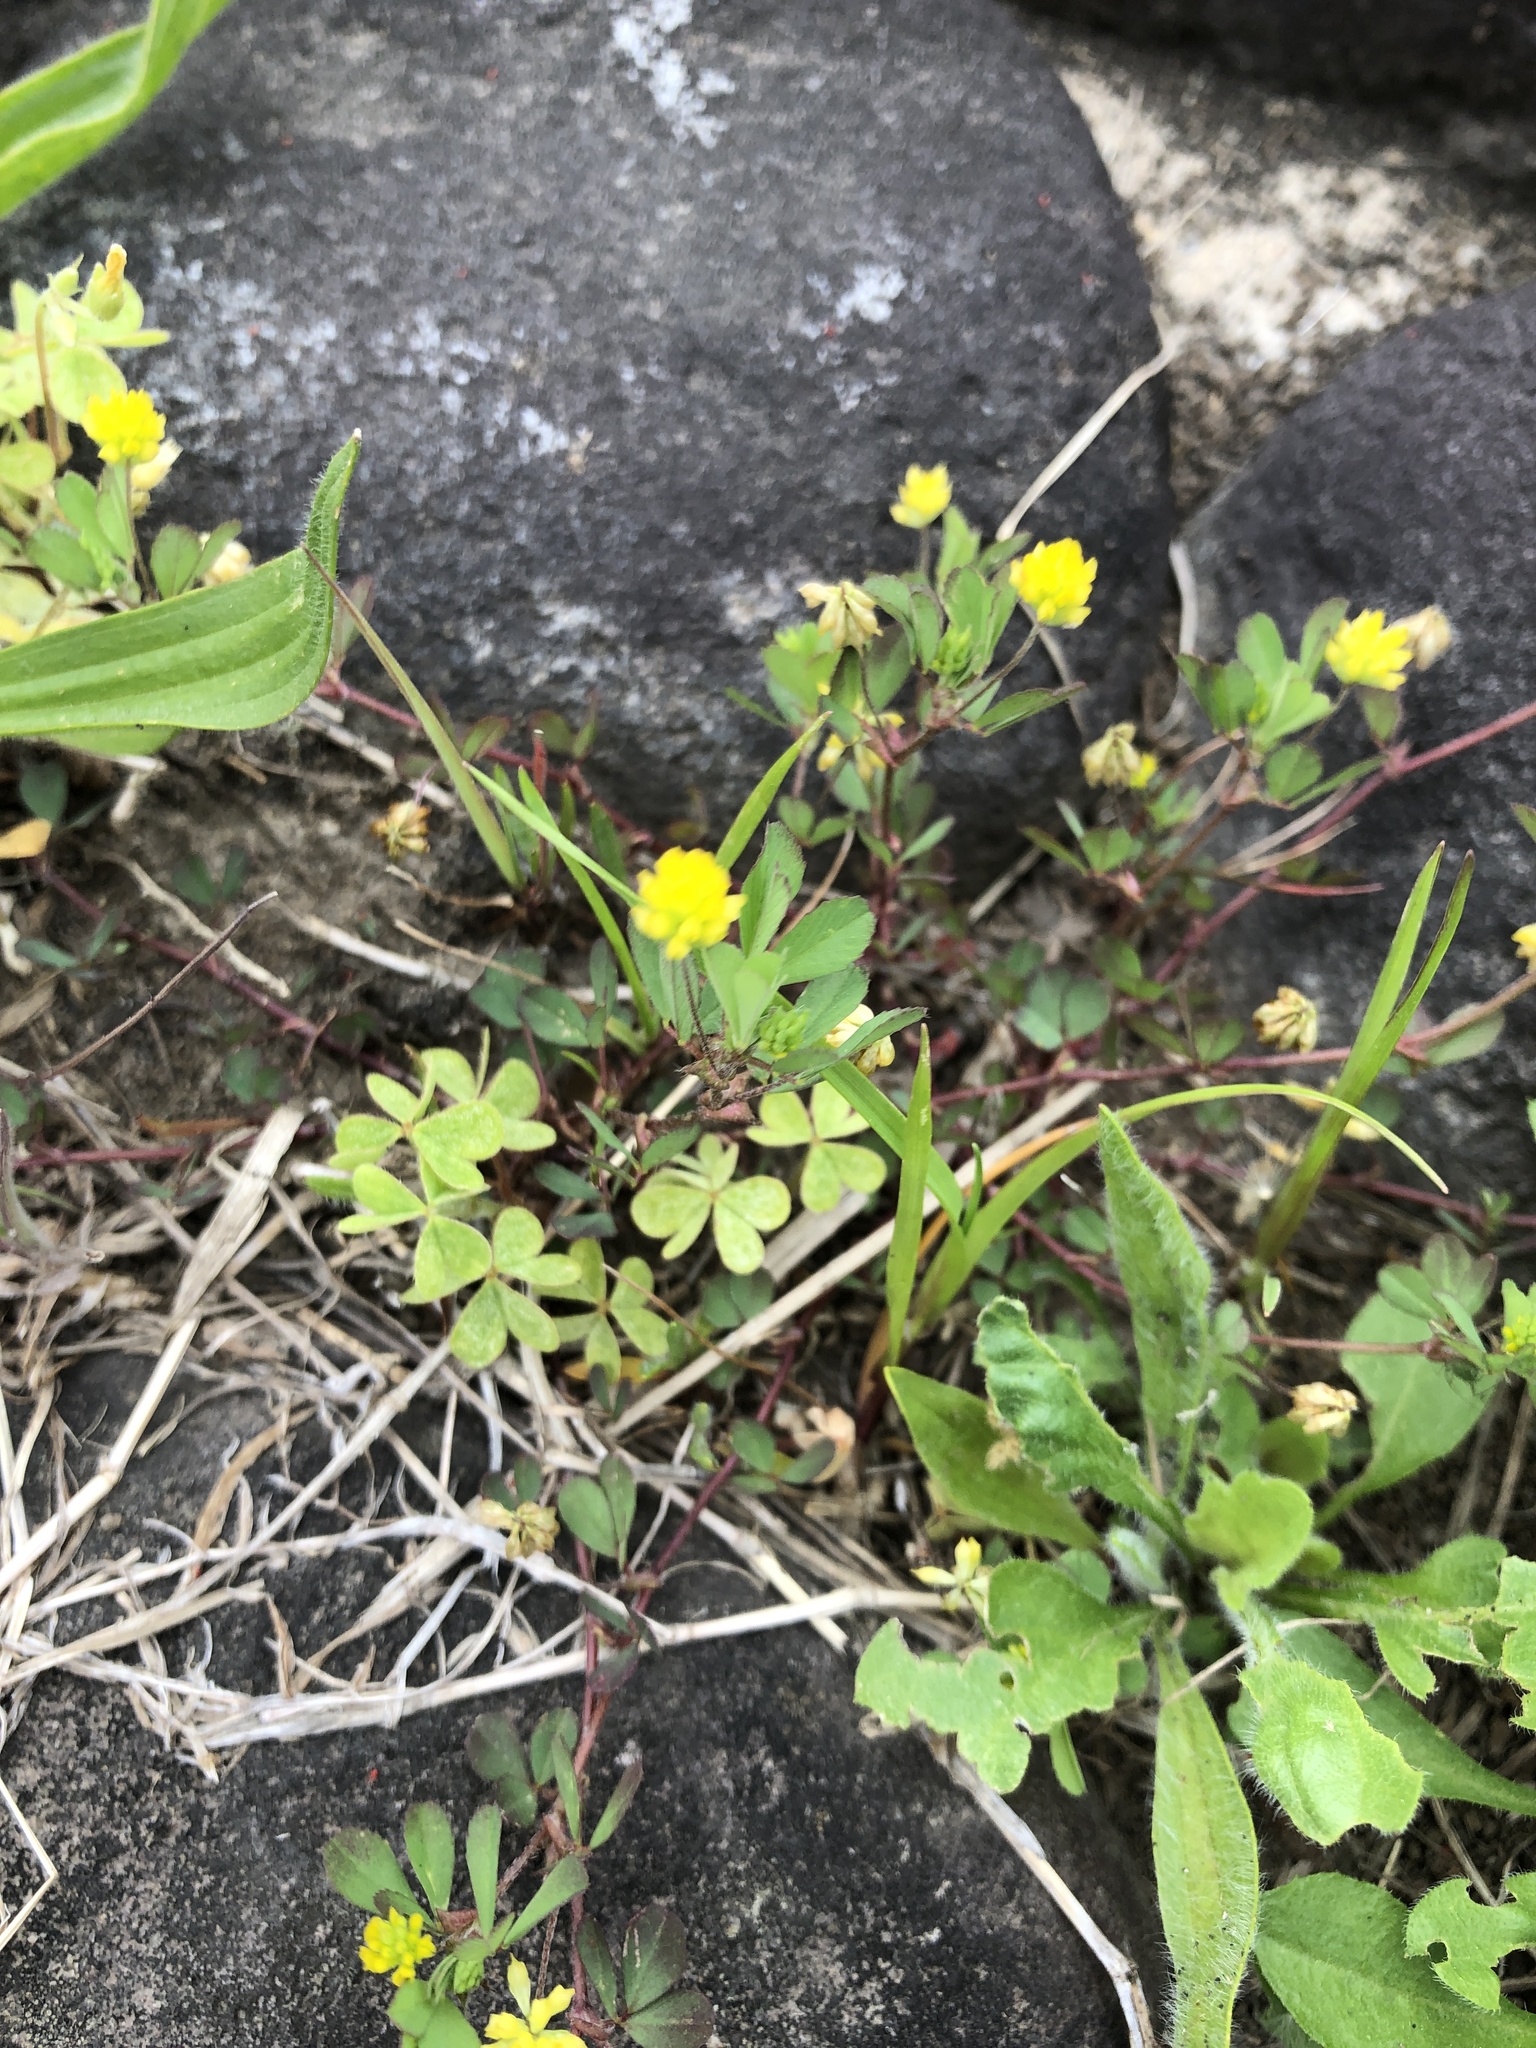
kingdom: Plantae
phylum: Tracheophyta
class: Magnoliopsida
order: Fabales
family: Fabaceae
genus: Trifolium
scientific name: Trifolium dubium
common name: Suckling clover
